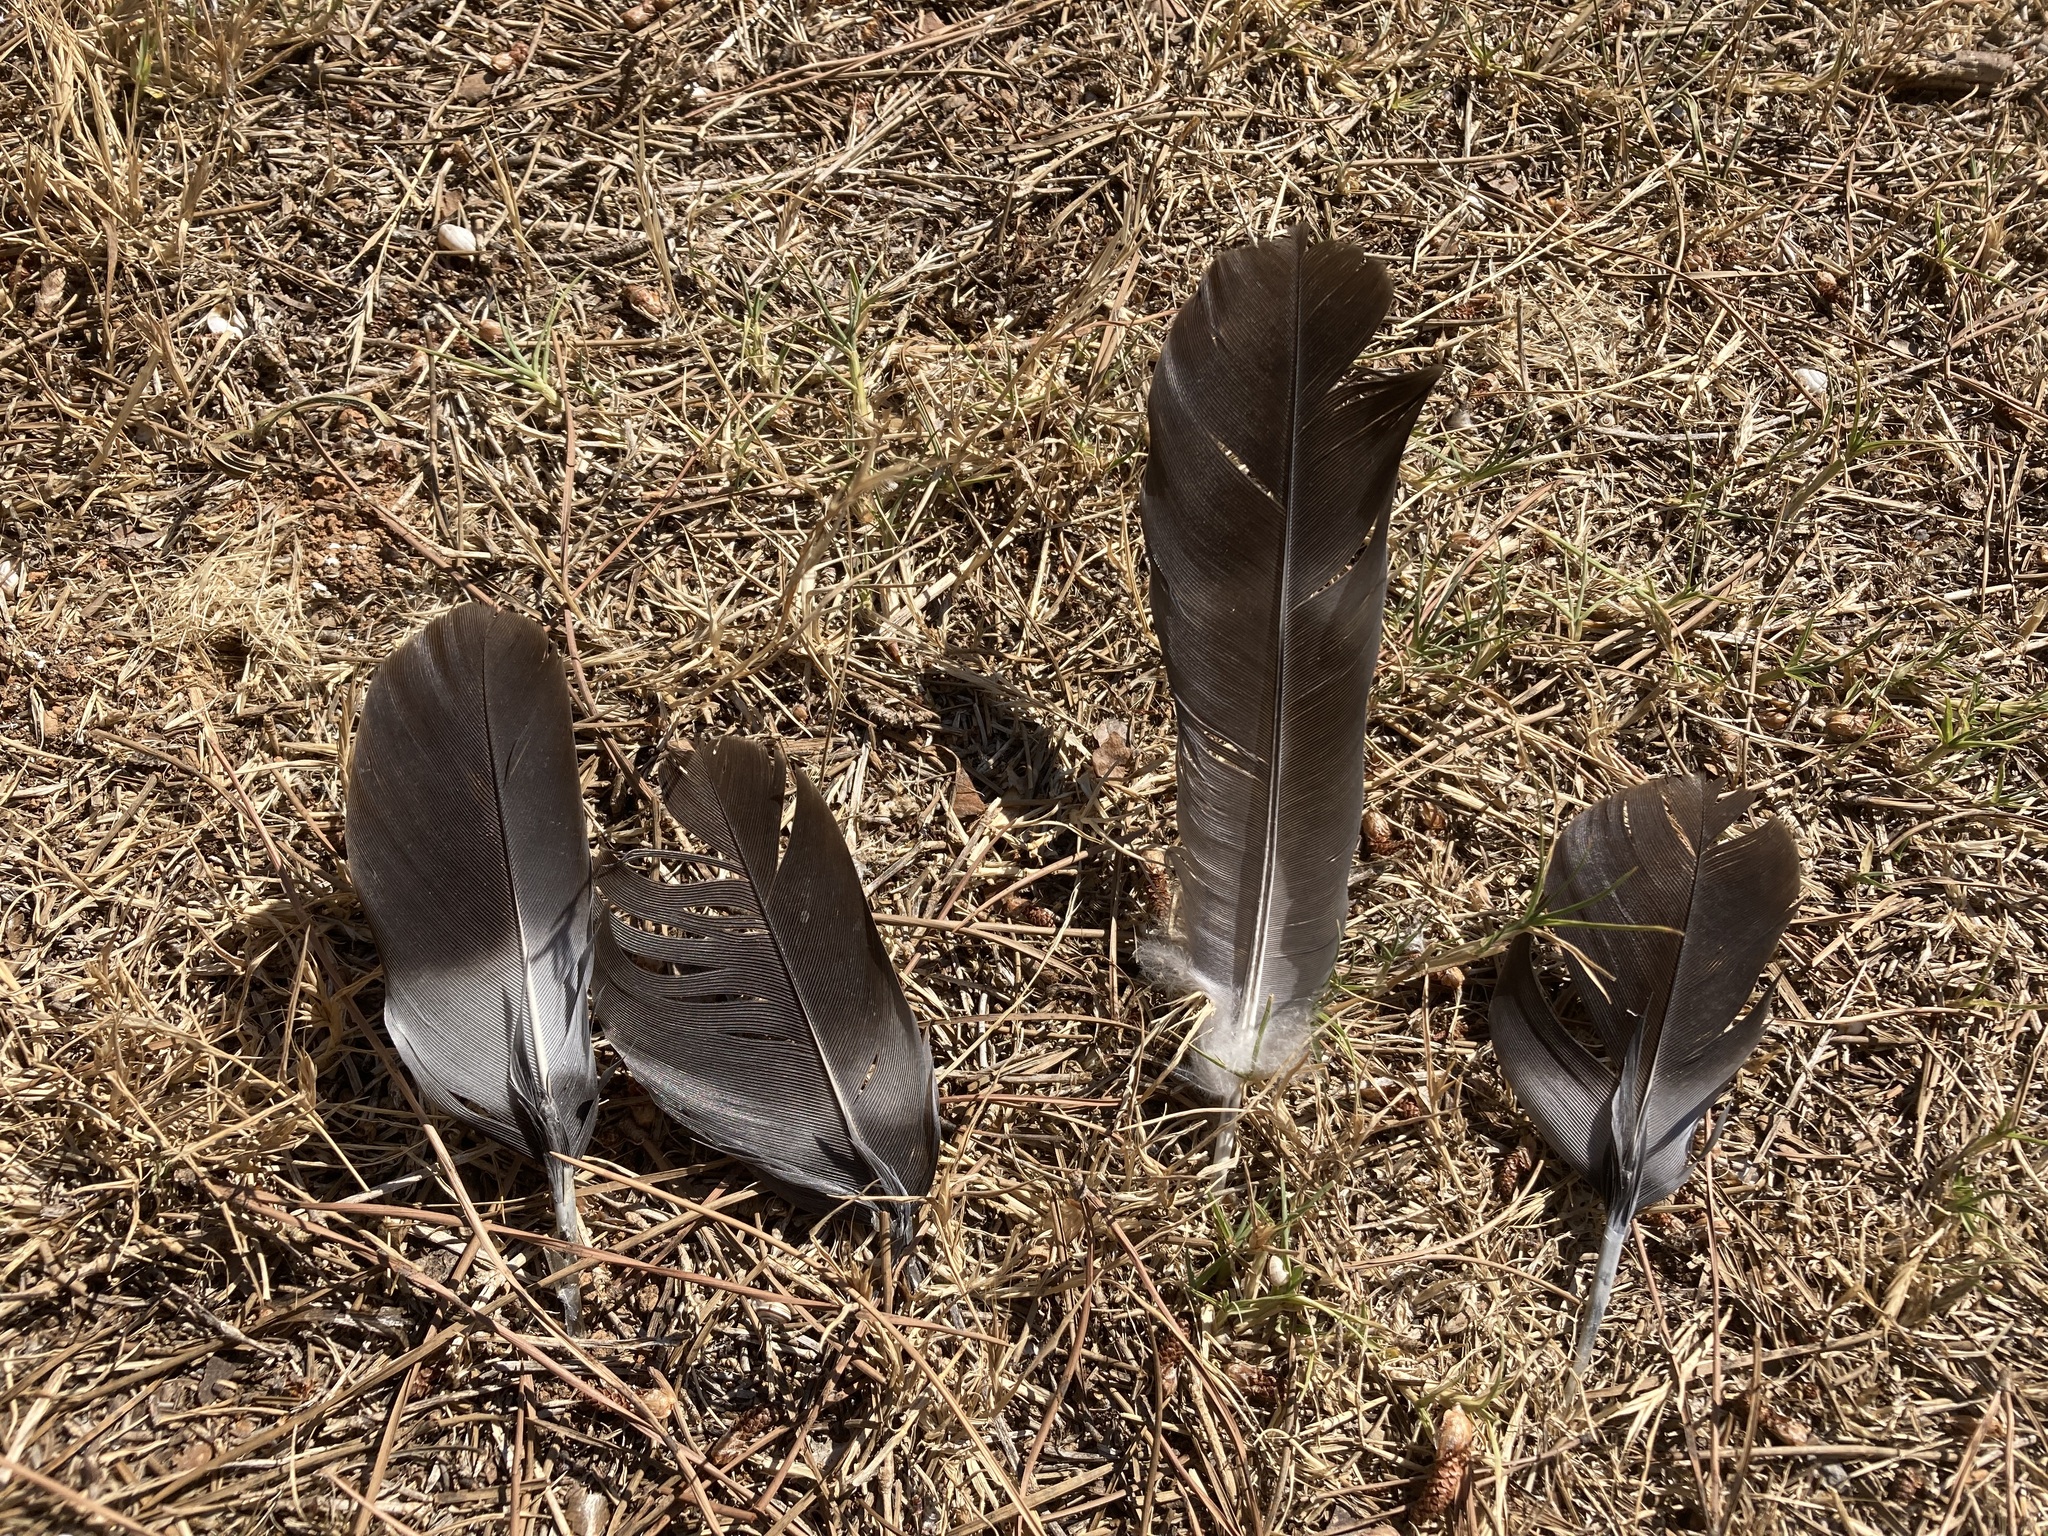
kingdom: Animalia
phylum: Chordata
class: Aves
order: Columbiformes
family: Columbidae
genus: Columba
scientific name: Columba palumbus
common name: Common wood pigeon
